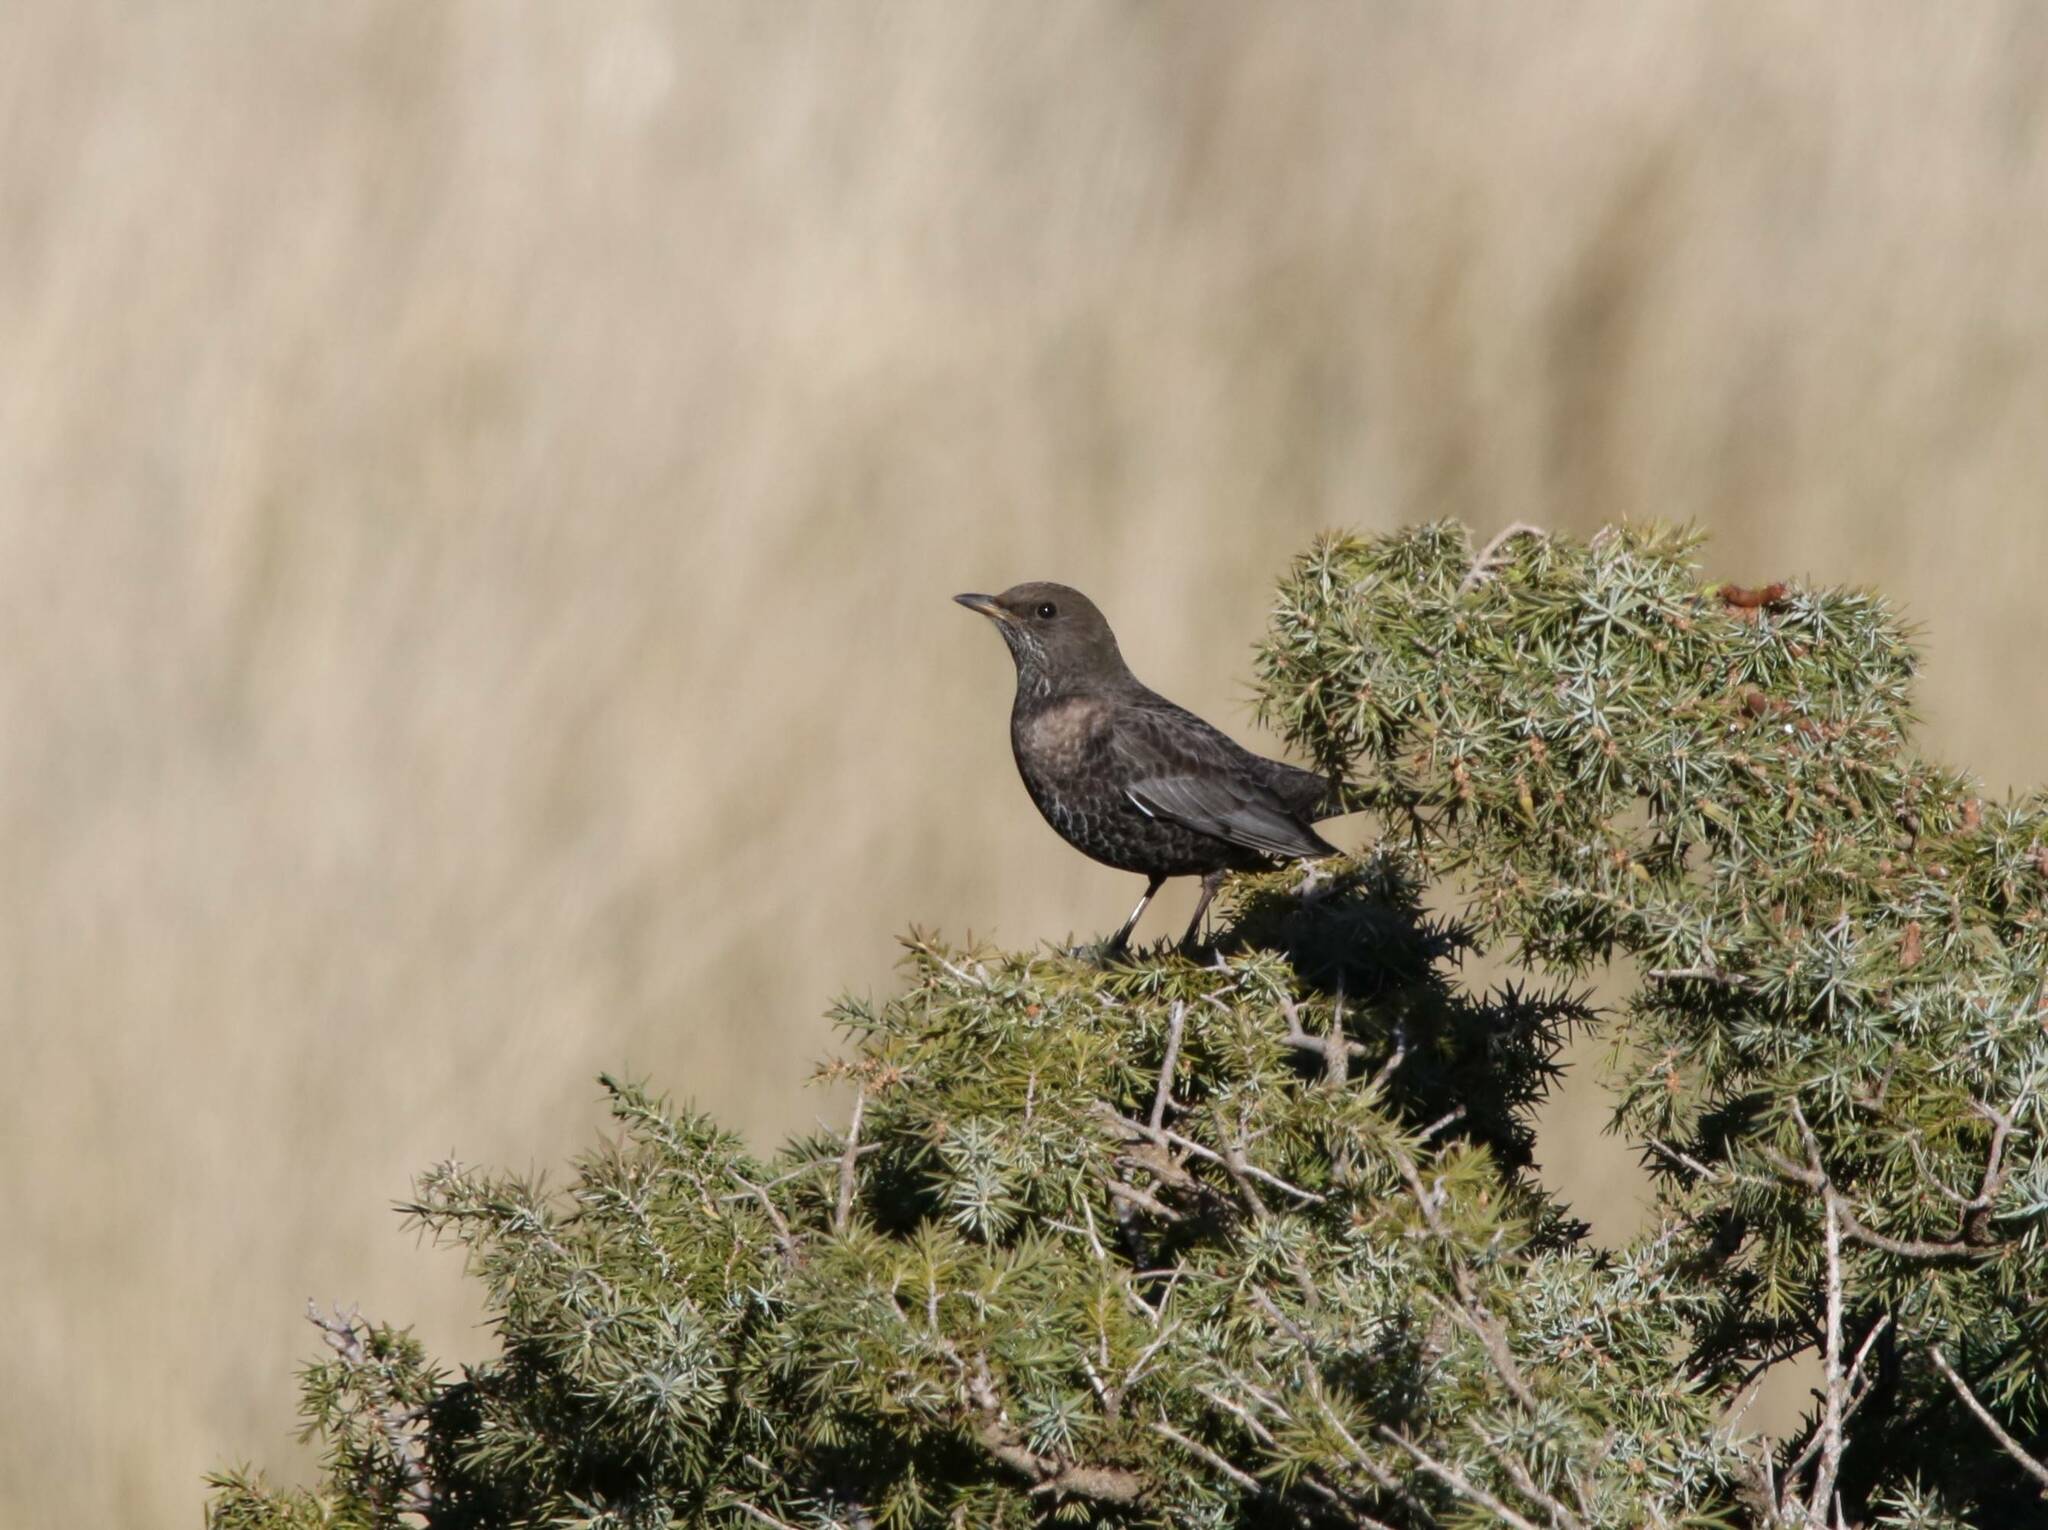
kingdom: Animalia
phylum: Chordata
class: Aves
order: Passeriformes
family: Turdidae
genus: Turdus
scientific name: Turdus torquatus
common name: Ring ouzel
